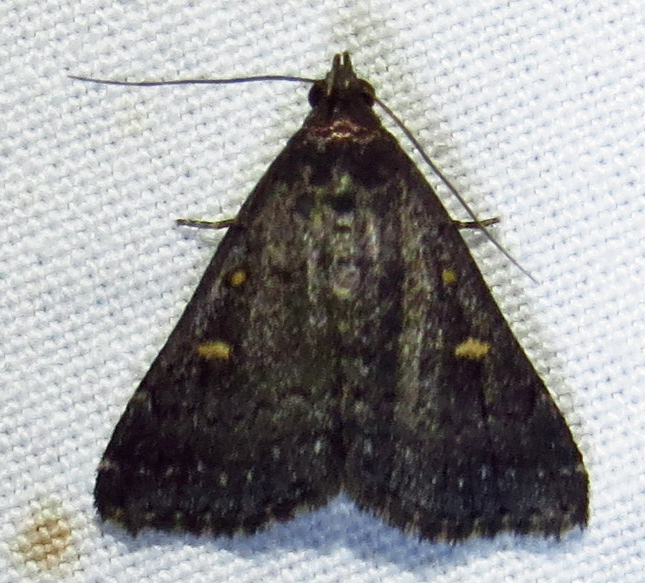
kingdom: Animalia
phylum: Arthropoda
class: Insecta
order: Lepidoptera
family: Erebidae
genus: Tetanolita
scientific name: Tetanolita mynesalis
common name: Smoky tetanolita moth
